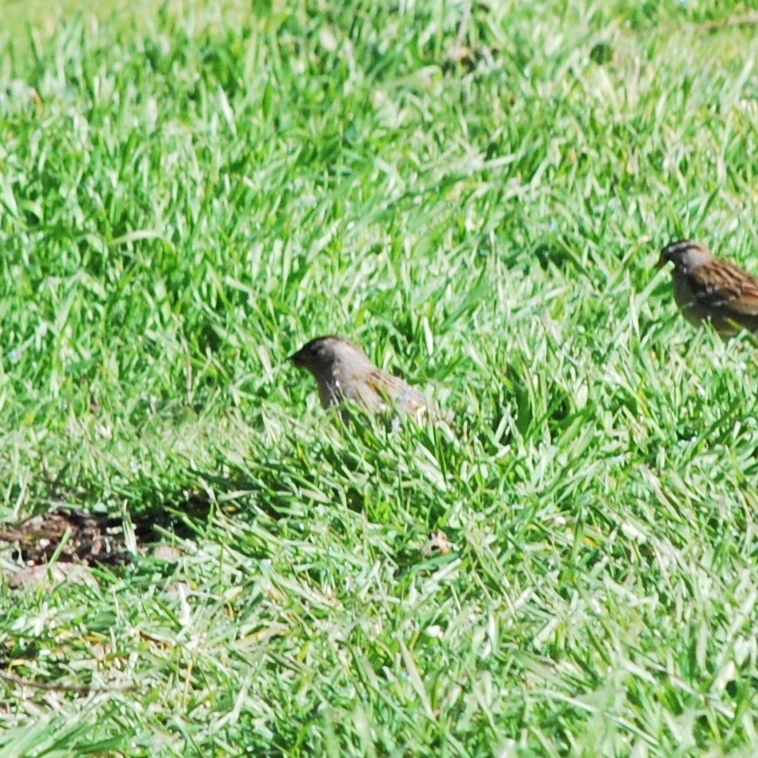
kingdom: Animalia
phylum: Chordata
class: Aves
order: Passeriformes
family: Passerellidae
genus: Zonotrichia
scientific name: Zonotrichia atricapilla
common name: Golden-crowned sparrow
